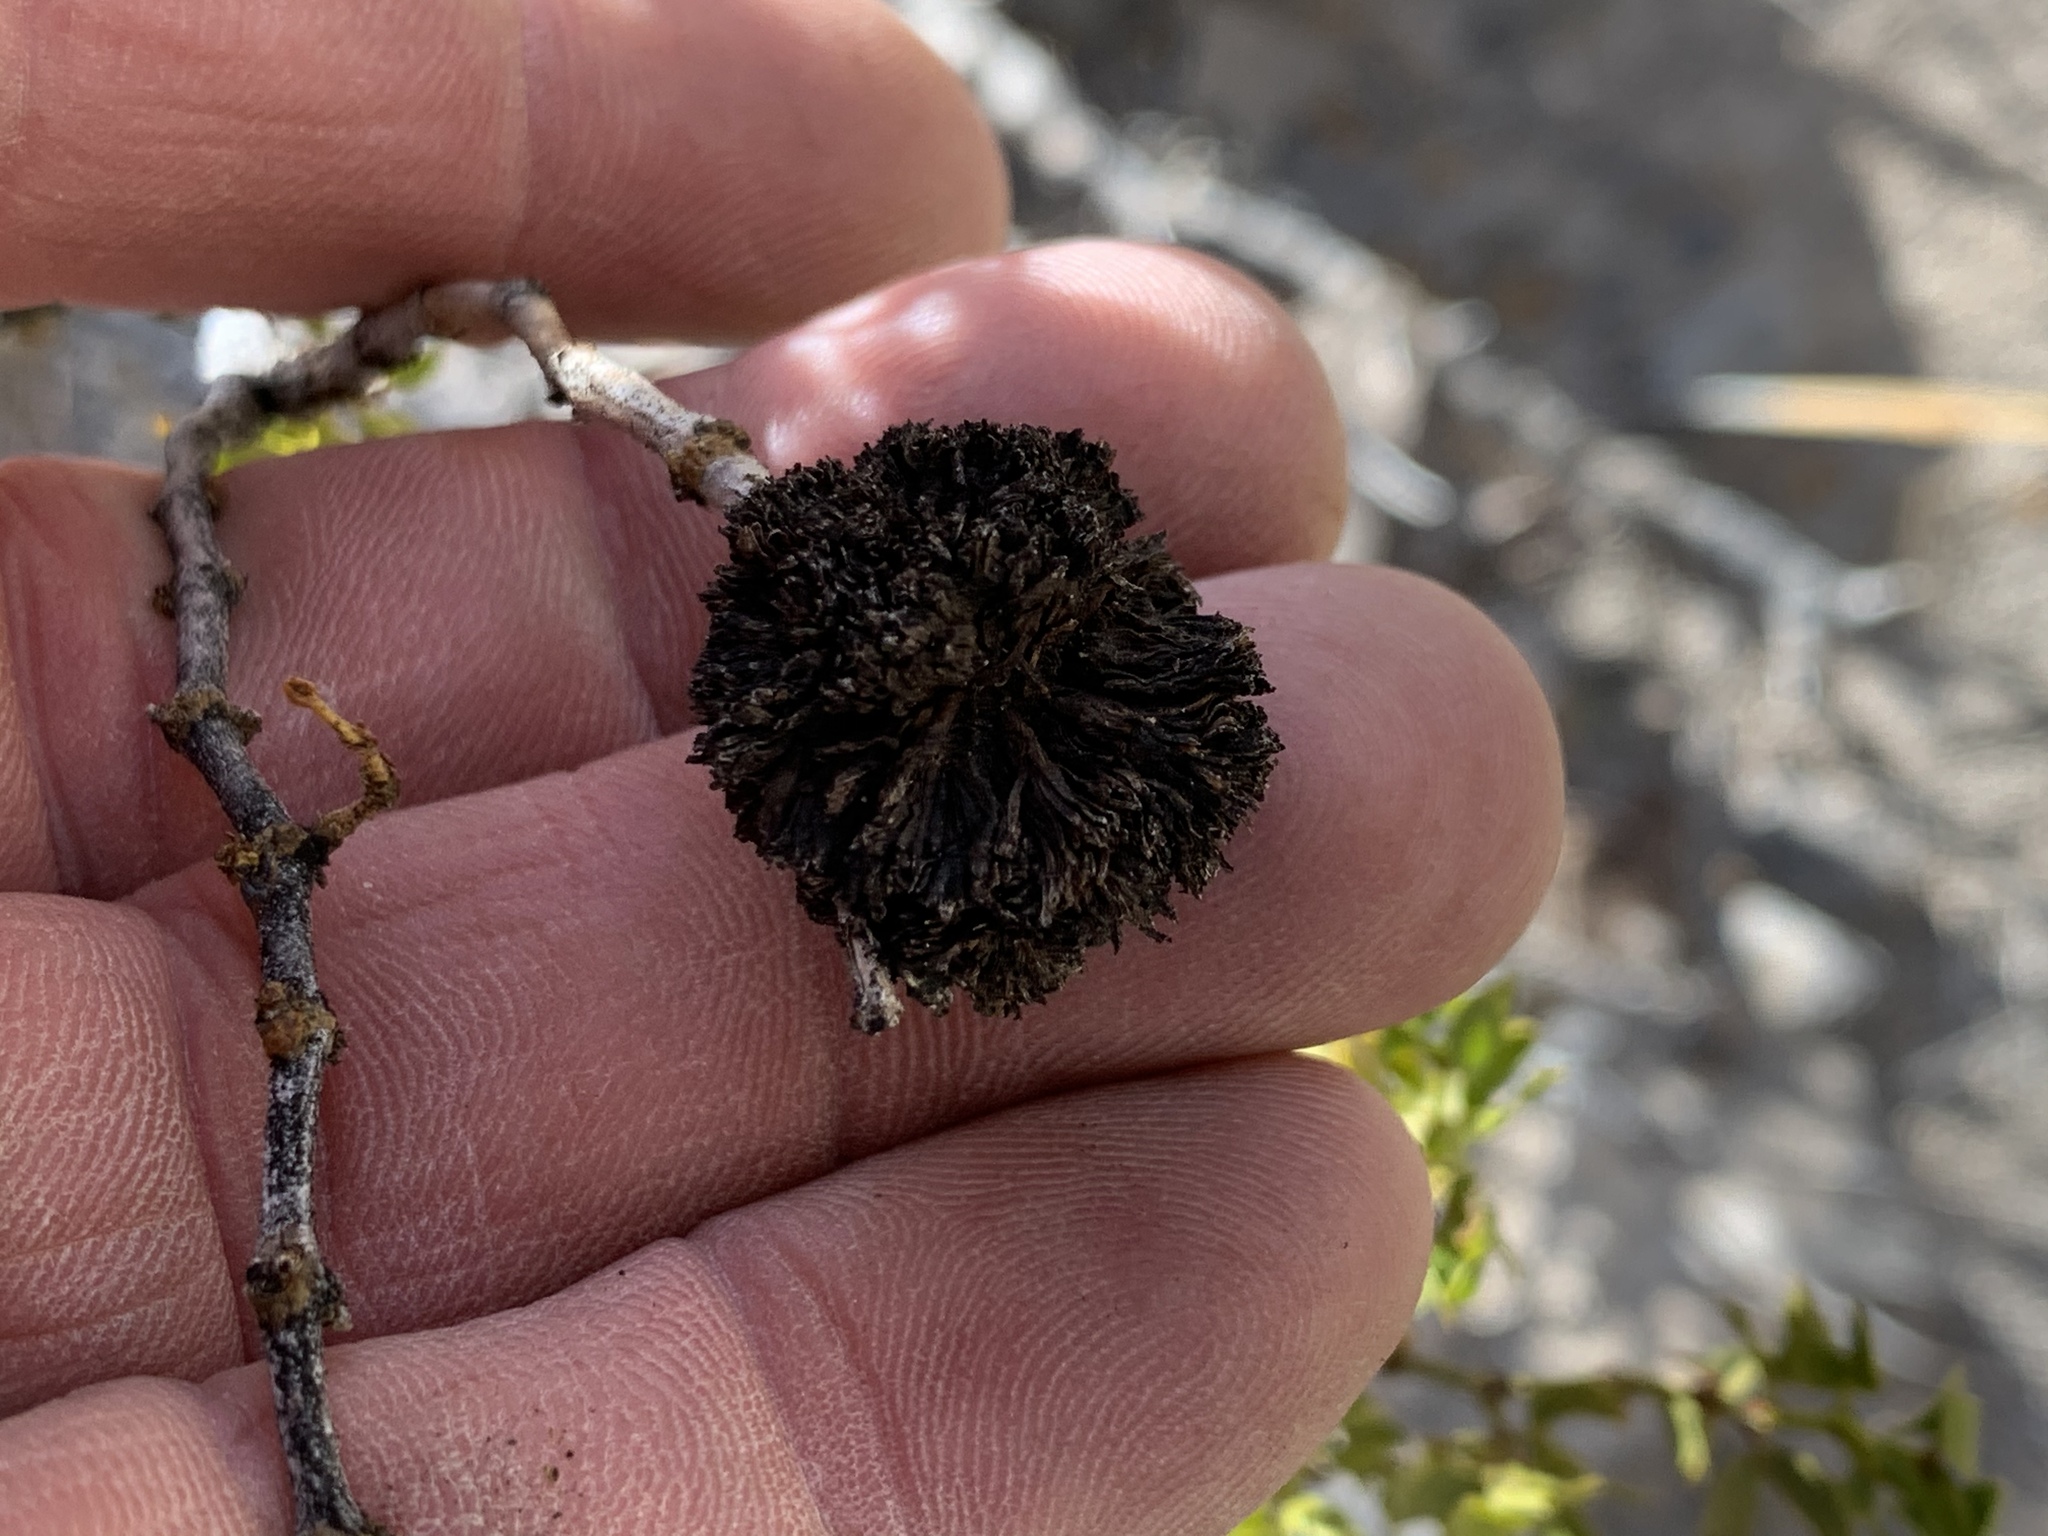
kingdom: Animalia
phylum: Arthropoda
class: Insecta
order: Diptera
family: Cecidomyiidae
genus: Asphondylia
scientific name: Asphondylia auripila
